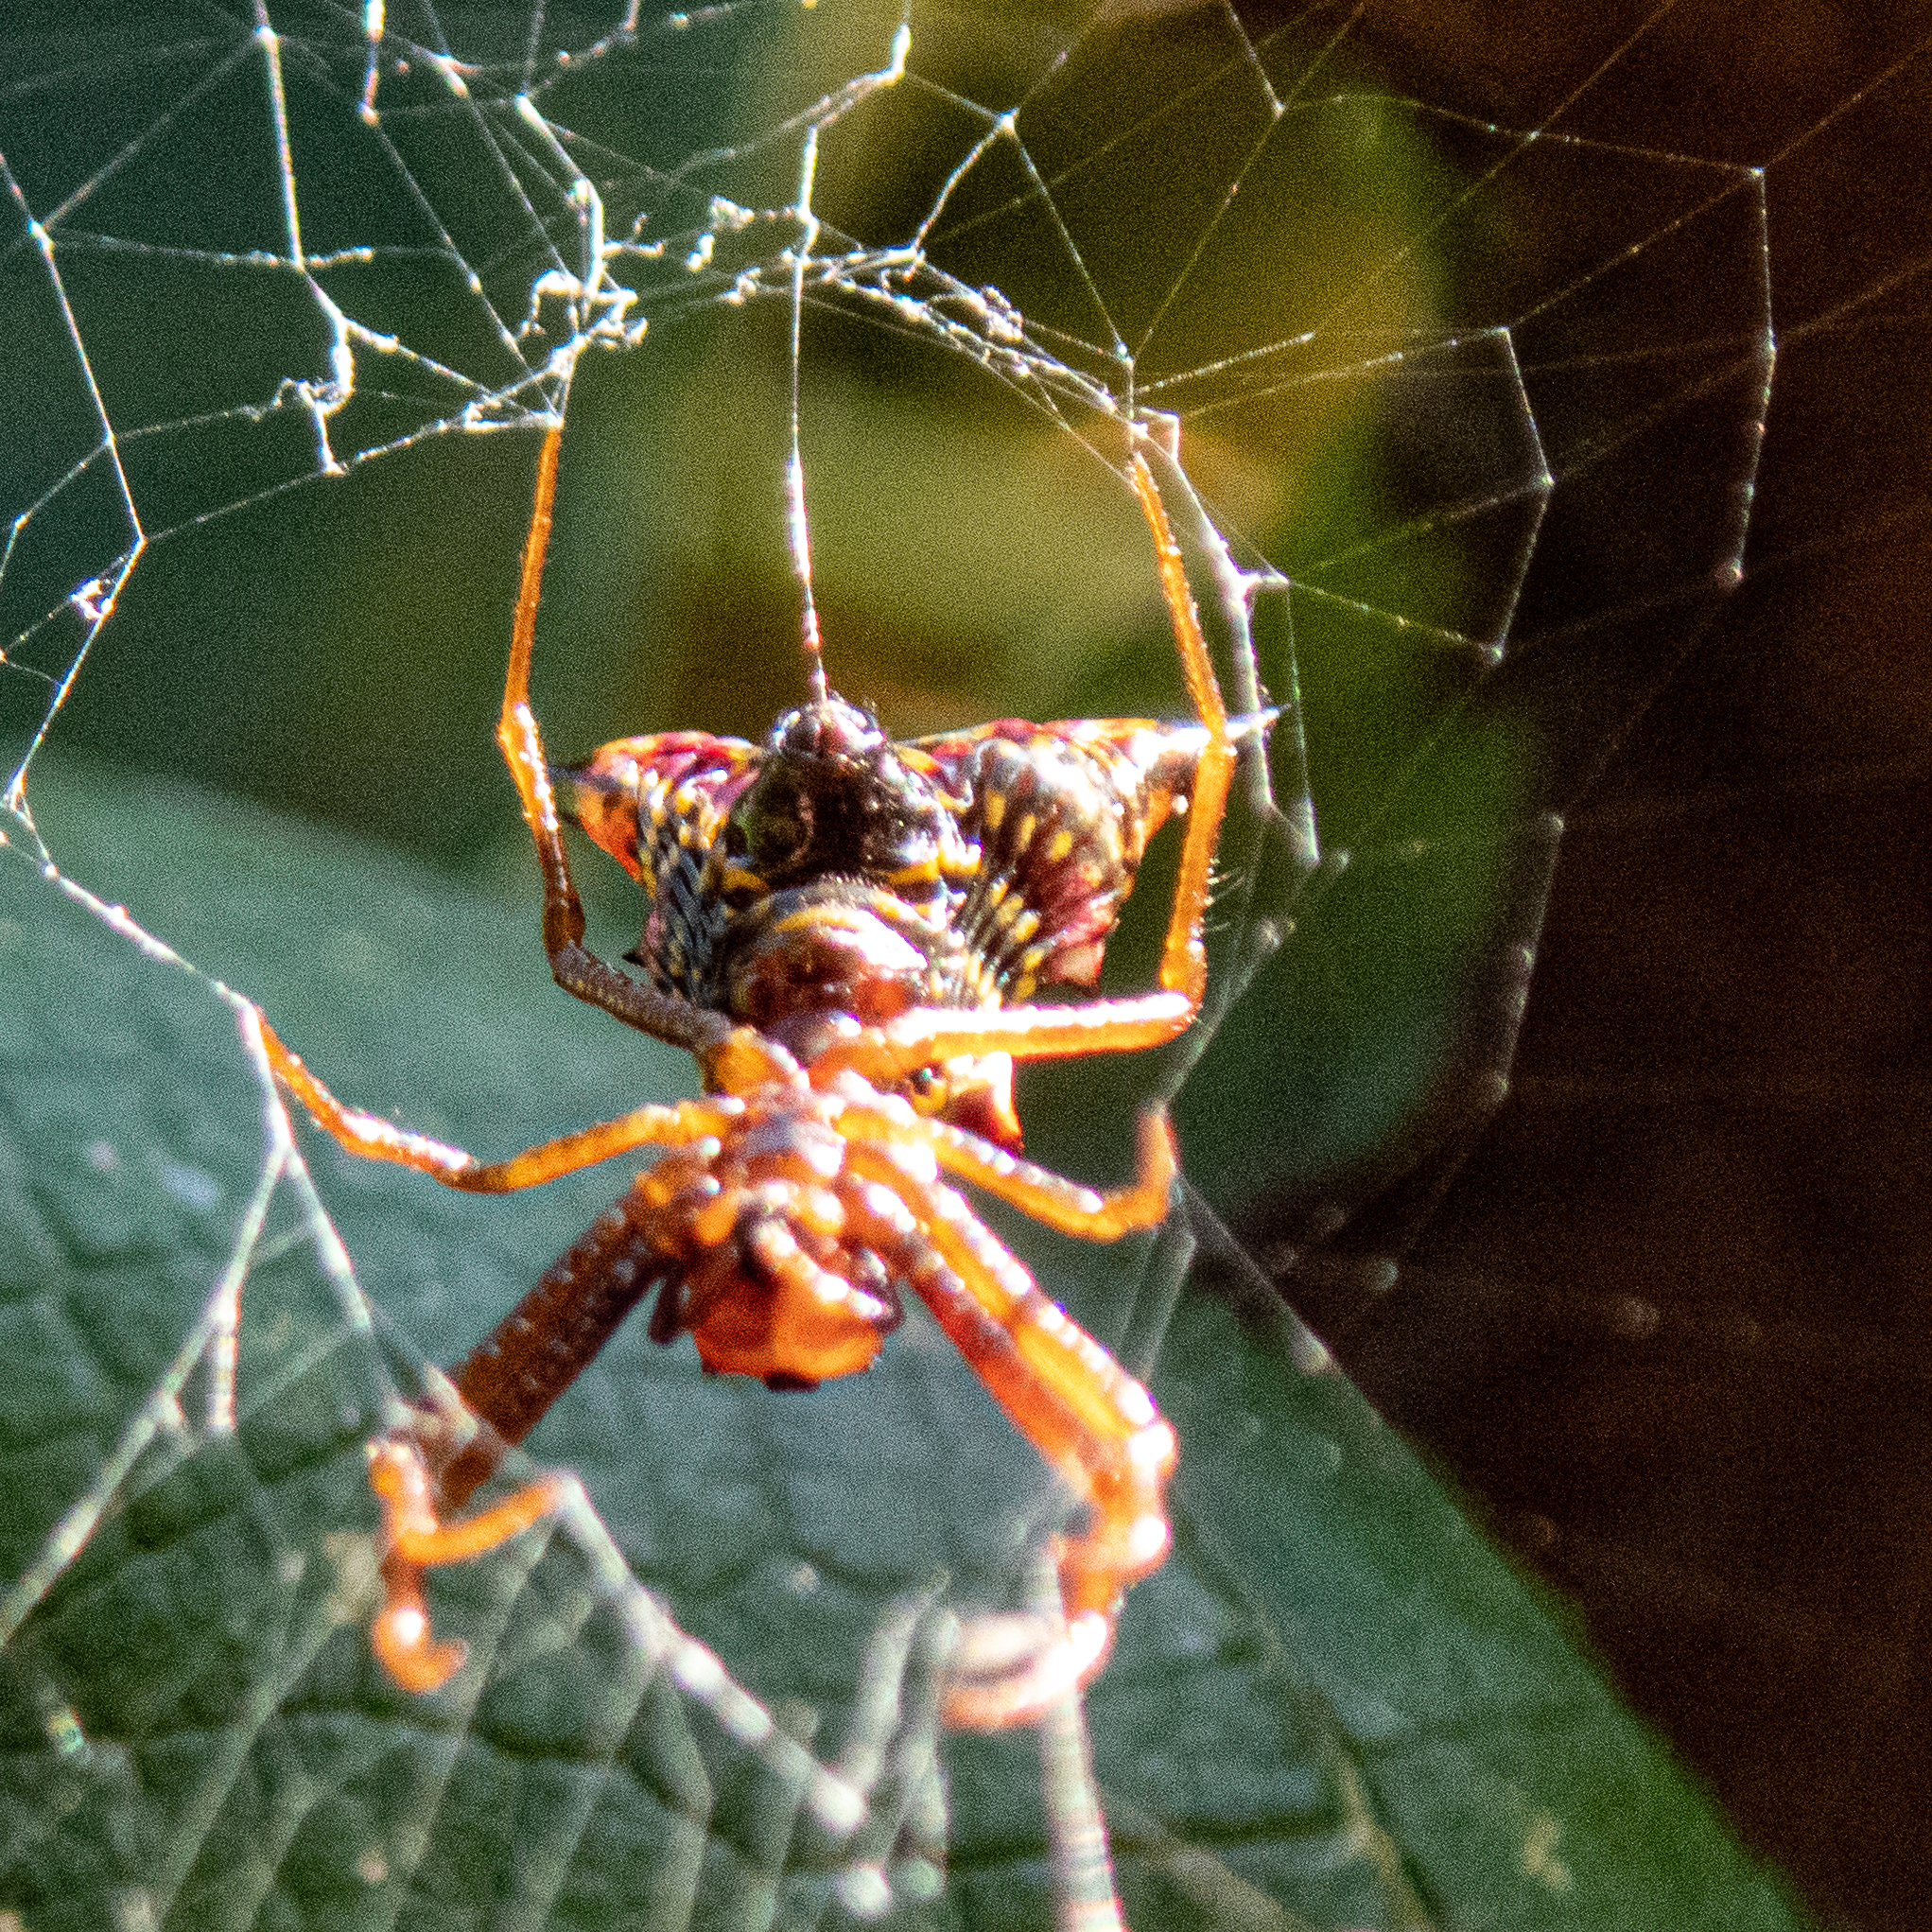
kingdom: Animalia
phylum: Arthropoda
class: Arachnida
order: Araneae
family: Araneidae
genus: Micrathena
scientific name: Micrathena sagittata
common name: Orb weavers
